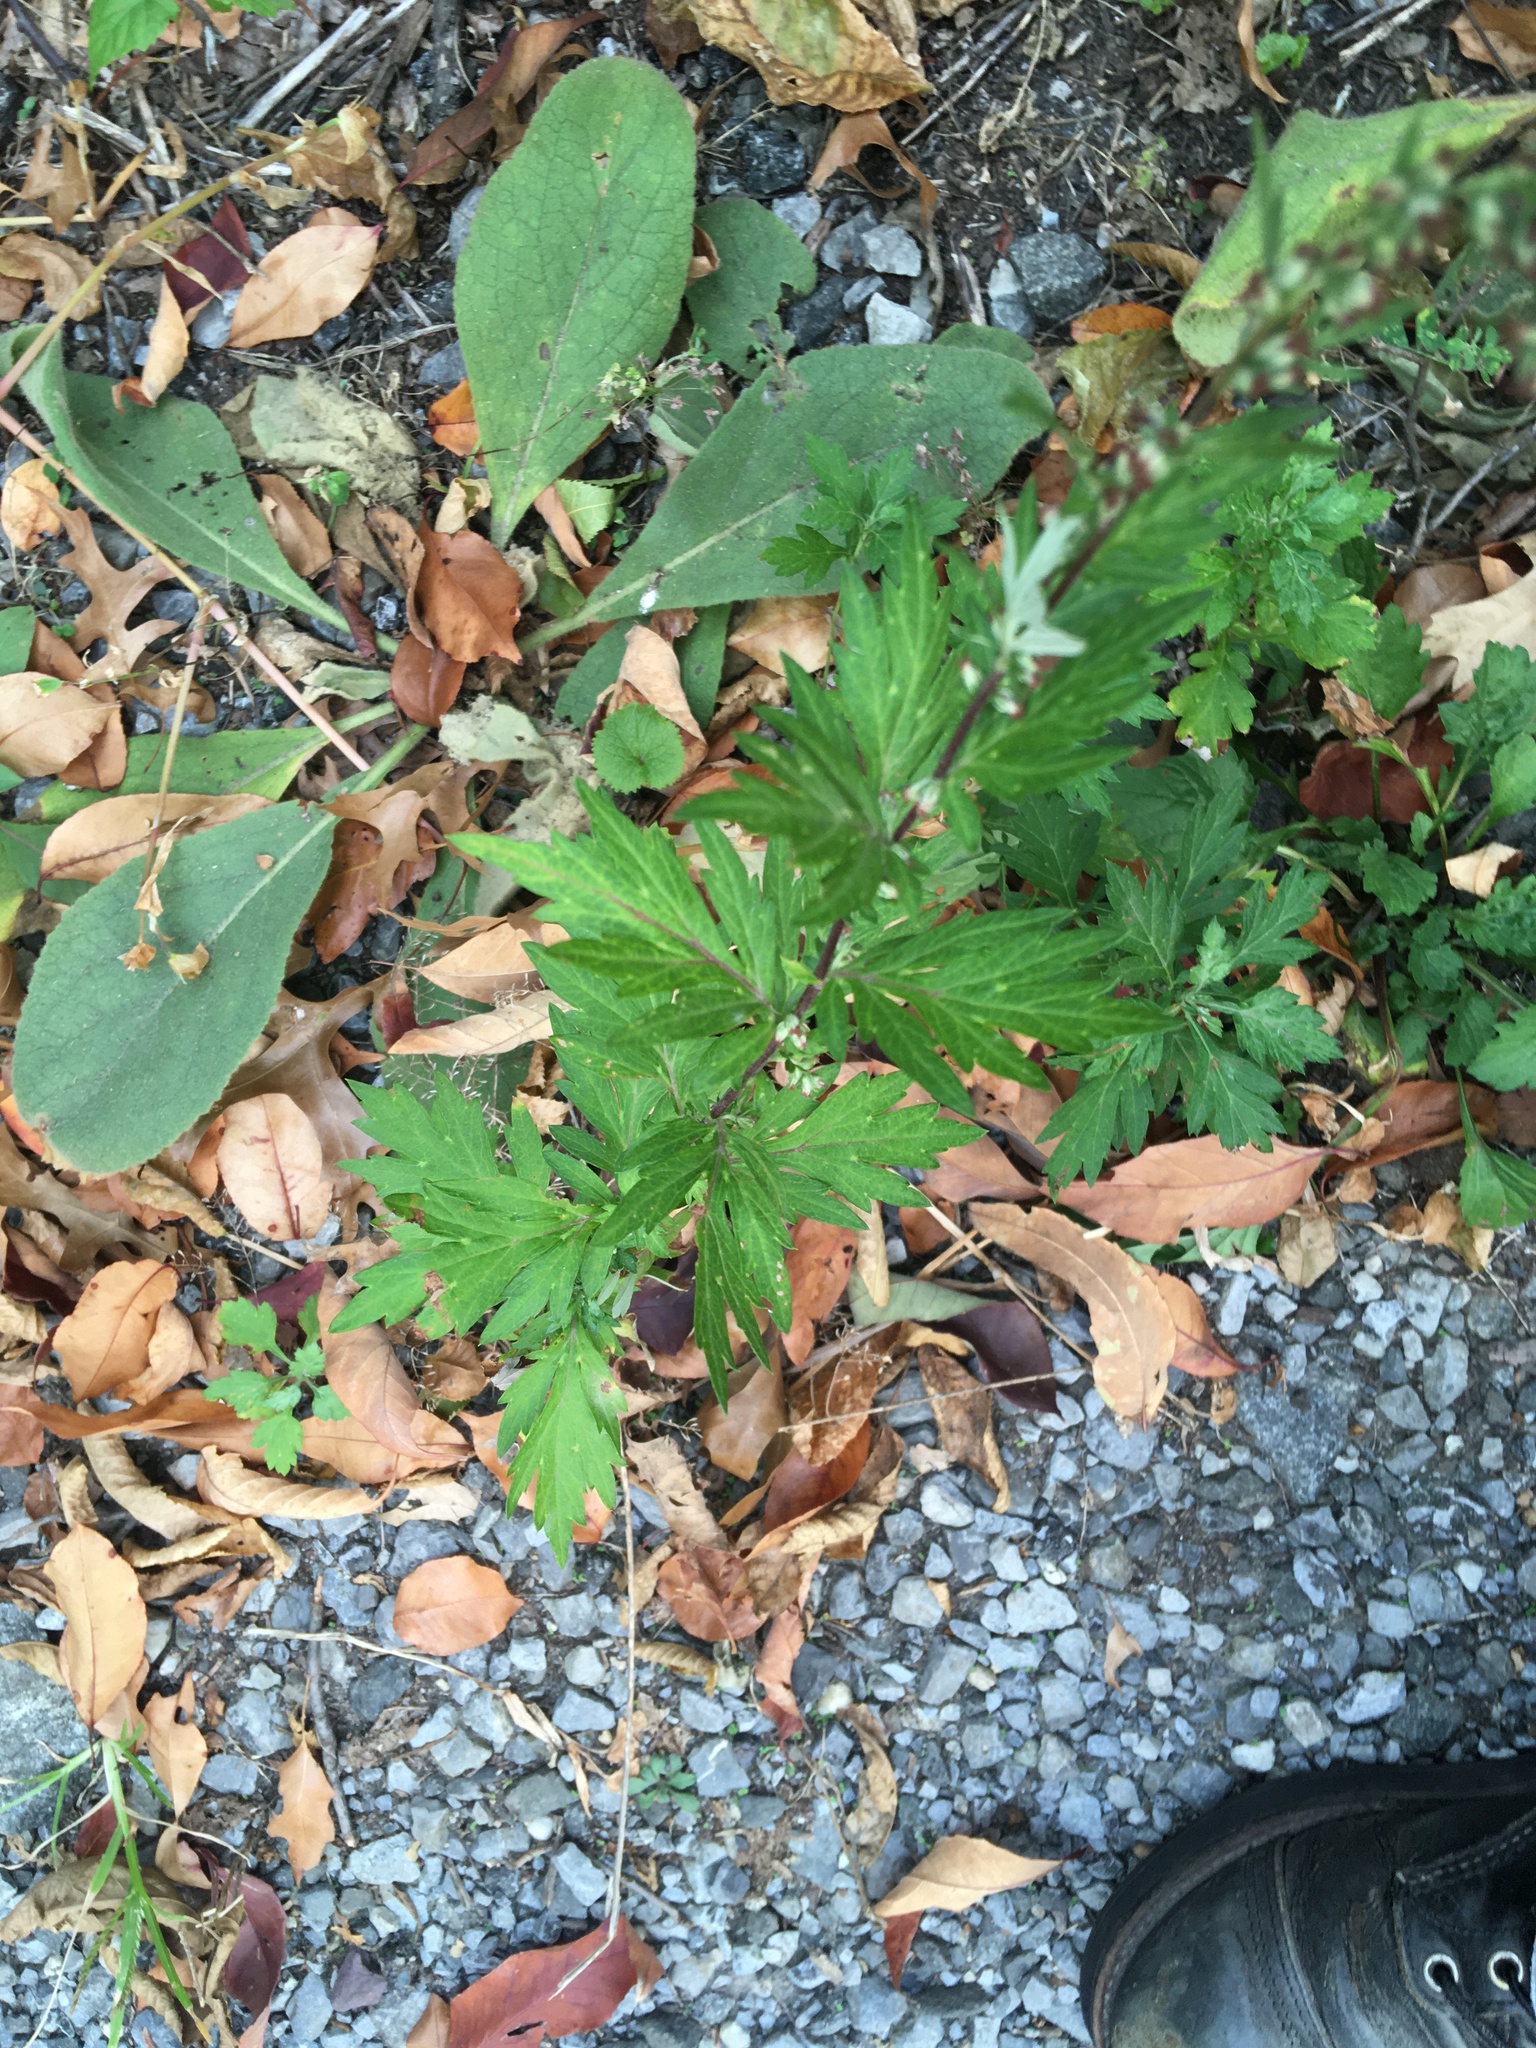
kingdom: Plantae
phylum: Tracheophyta
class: Magnoliopsida
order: Asterales
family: Asteraceae
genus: Artemisia
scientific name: Artemisia vulgaris
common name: Mugwort
